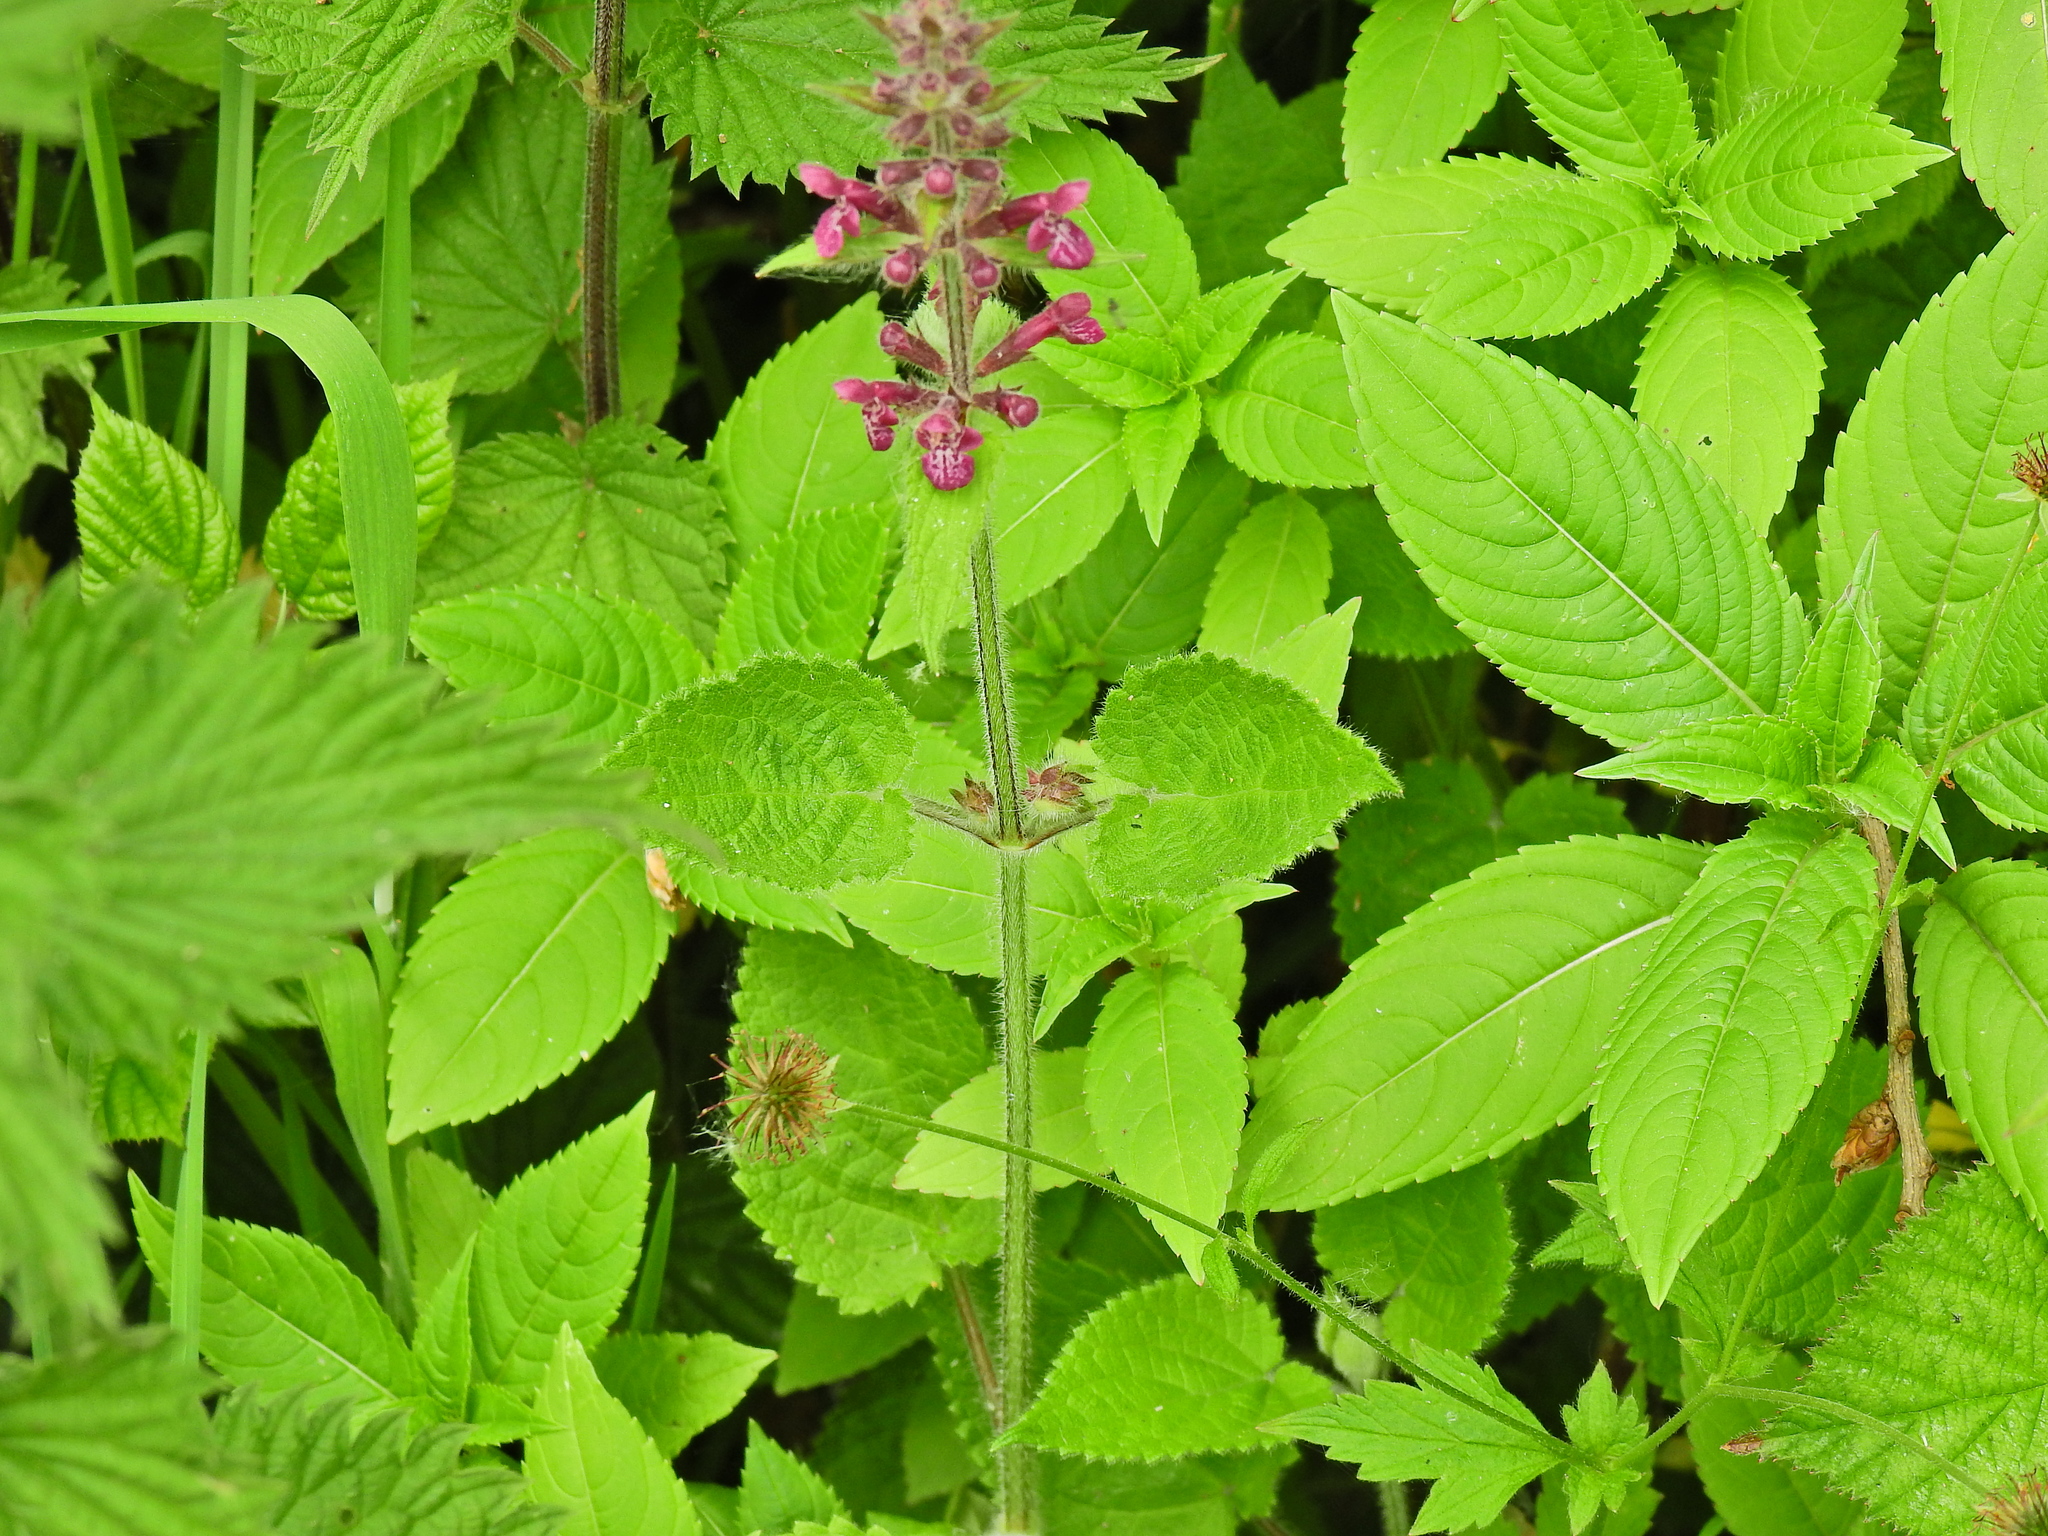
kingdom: Plantae
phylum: Tracheophyta
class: Magnoliopsida
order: Lamiales
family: Lamiaceae
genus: Stachys
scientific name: Stachys sylvatica
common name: Hedge woundwort
